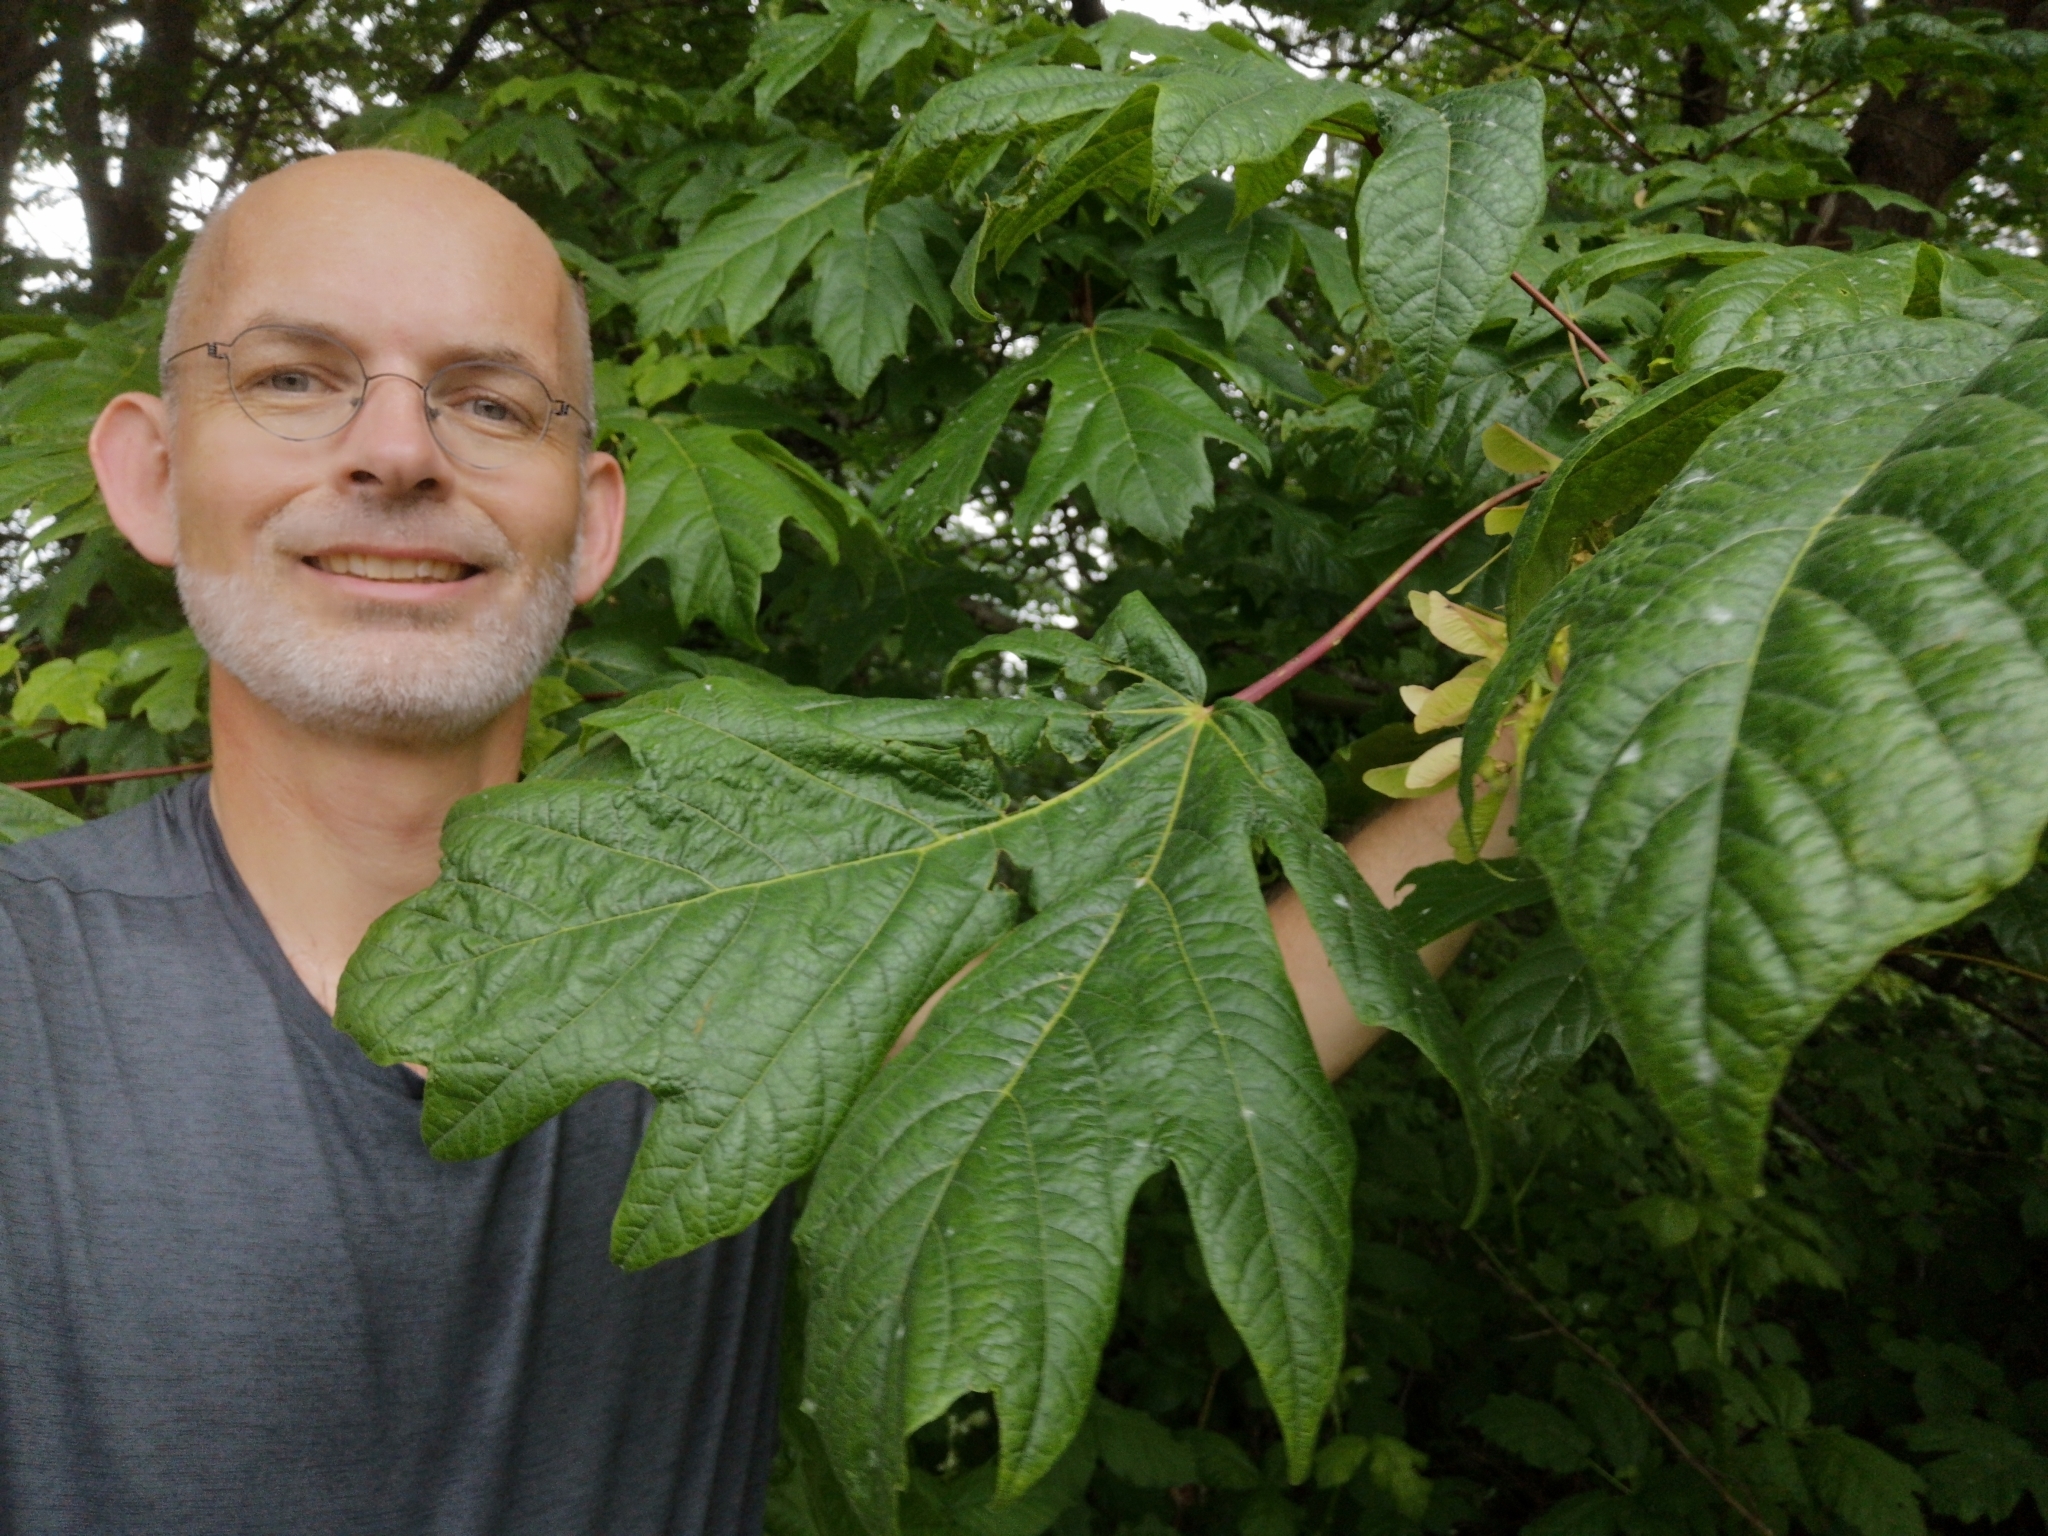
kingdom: Plantae
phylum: Tracheophyta
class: Magnoliopsida
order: Sapindales
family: Sapindaceae
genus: Acer
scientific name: Acer macrophyllum
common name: Oregon maple
